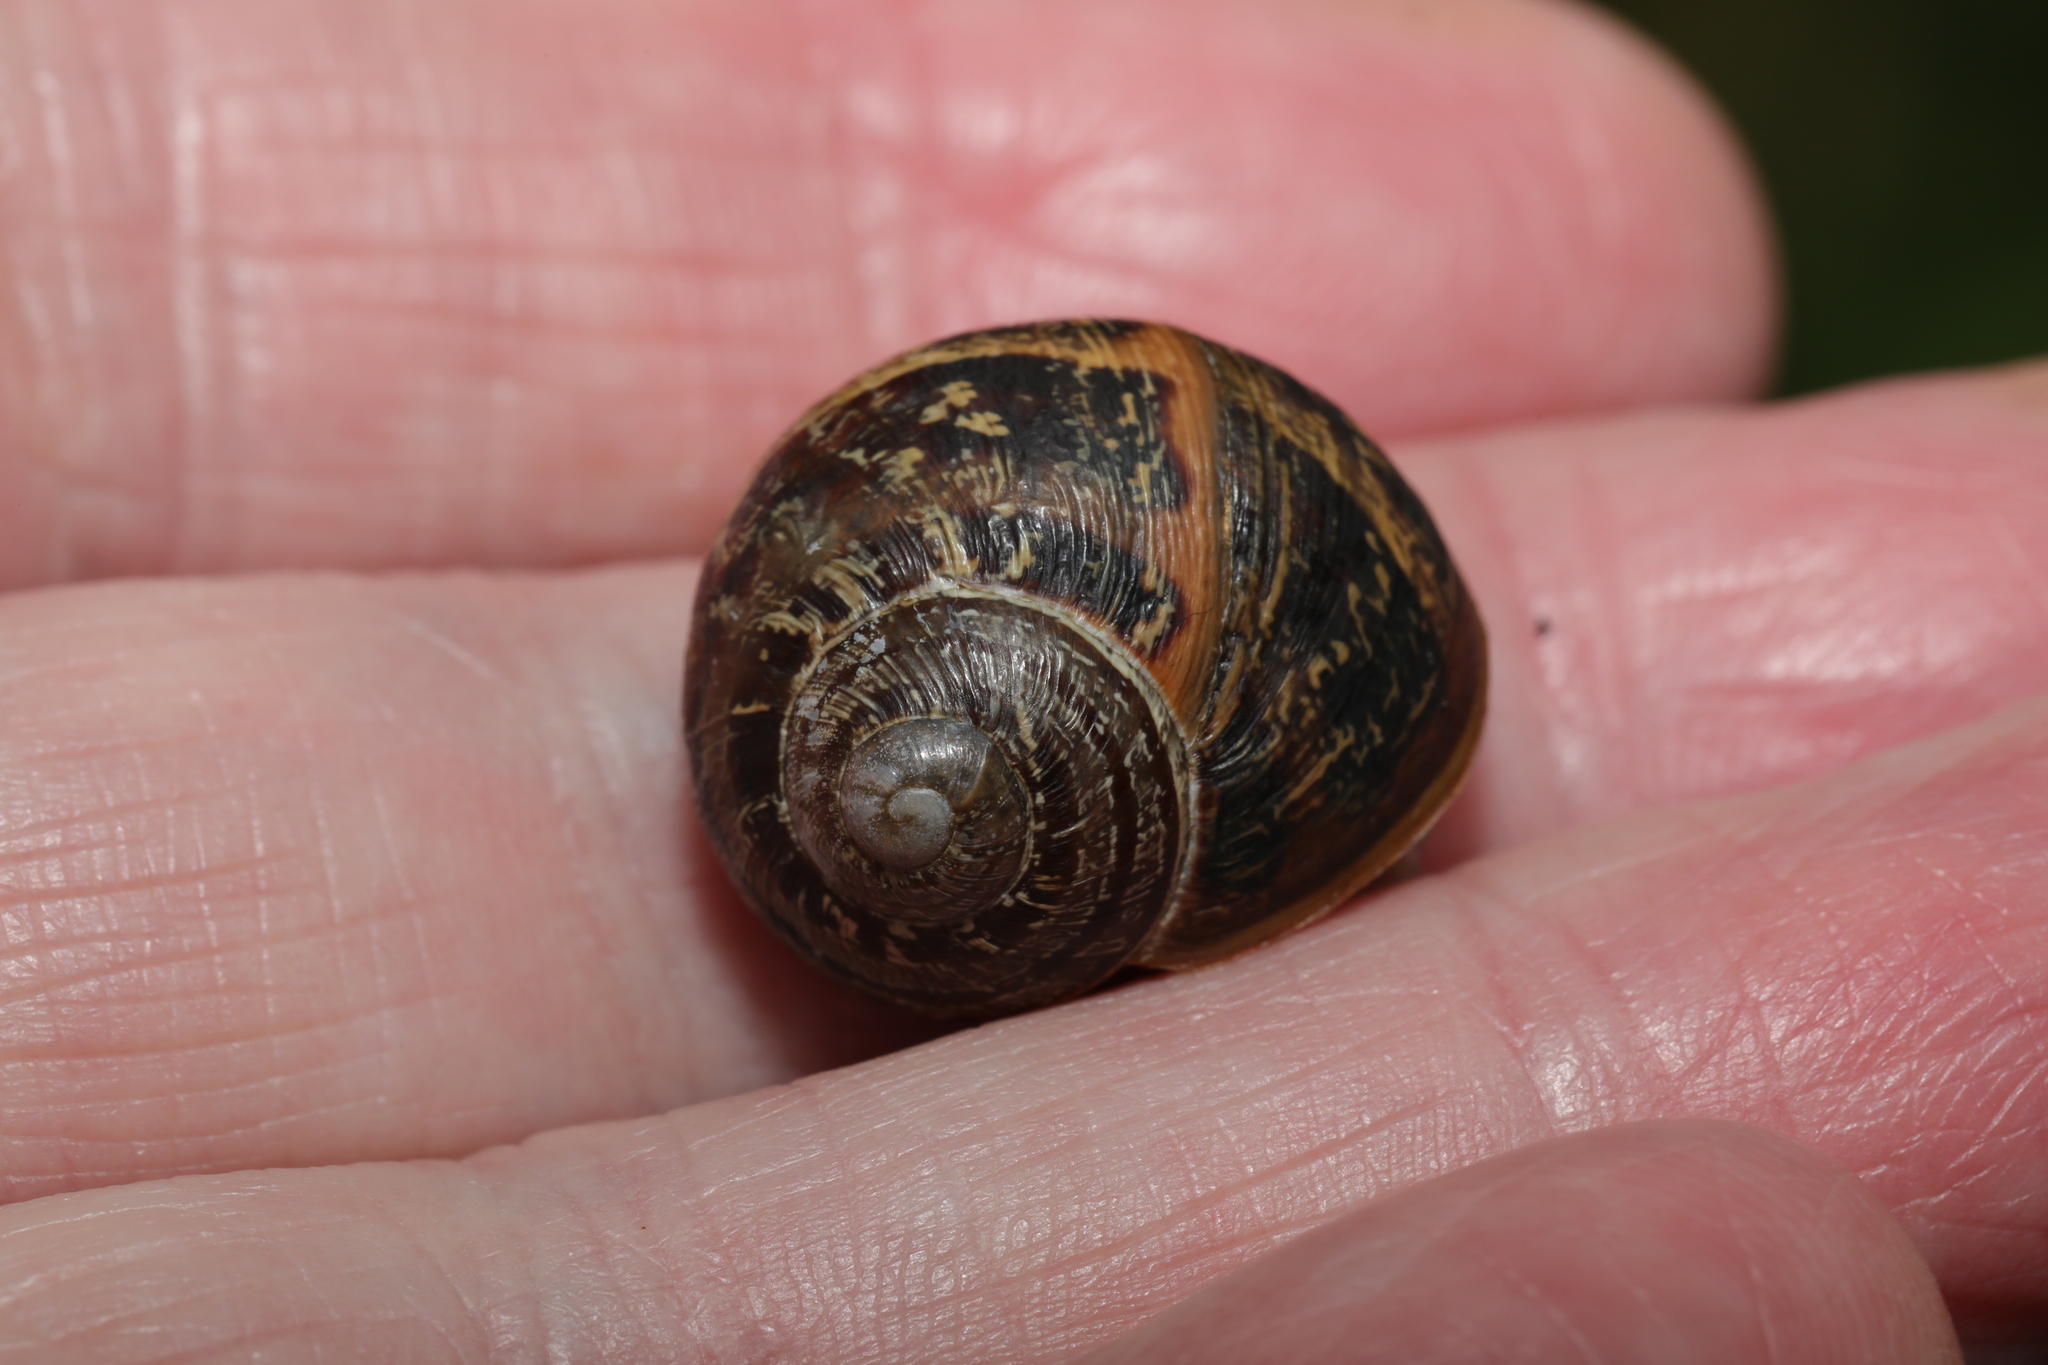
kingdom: Animalia
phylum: Mollusca
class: Gastropoda
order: Stylommatophora
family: Helicidae
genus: Cornu
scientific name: Cornu aspersum
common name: Brown garden snail
